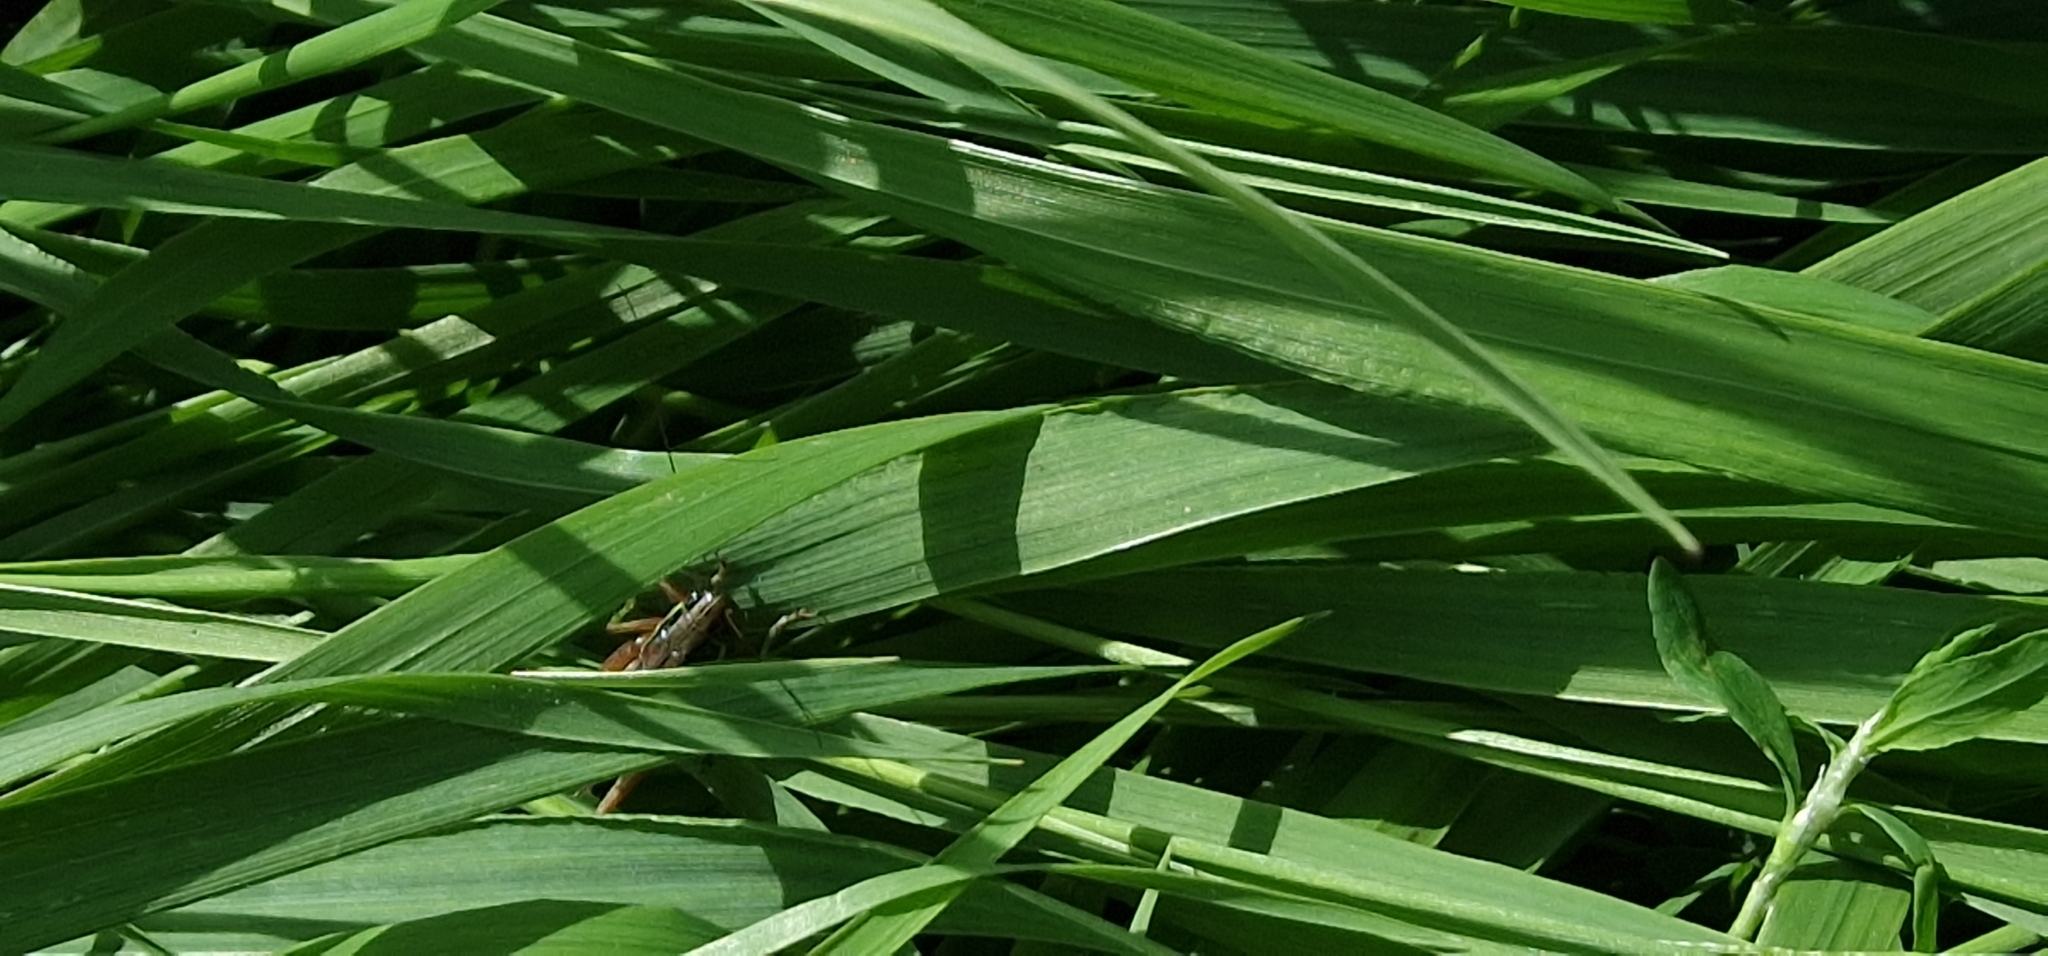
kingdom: Animalia
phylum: Arthropoda
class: Insecta
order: Orthoptera
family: Tettigoniidae
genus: Roeseliana
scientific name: Roeseliana roeselii
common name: Roesel's bush cricket
